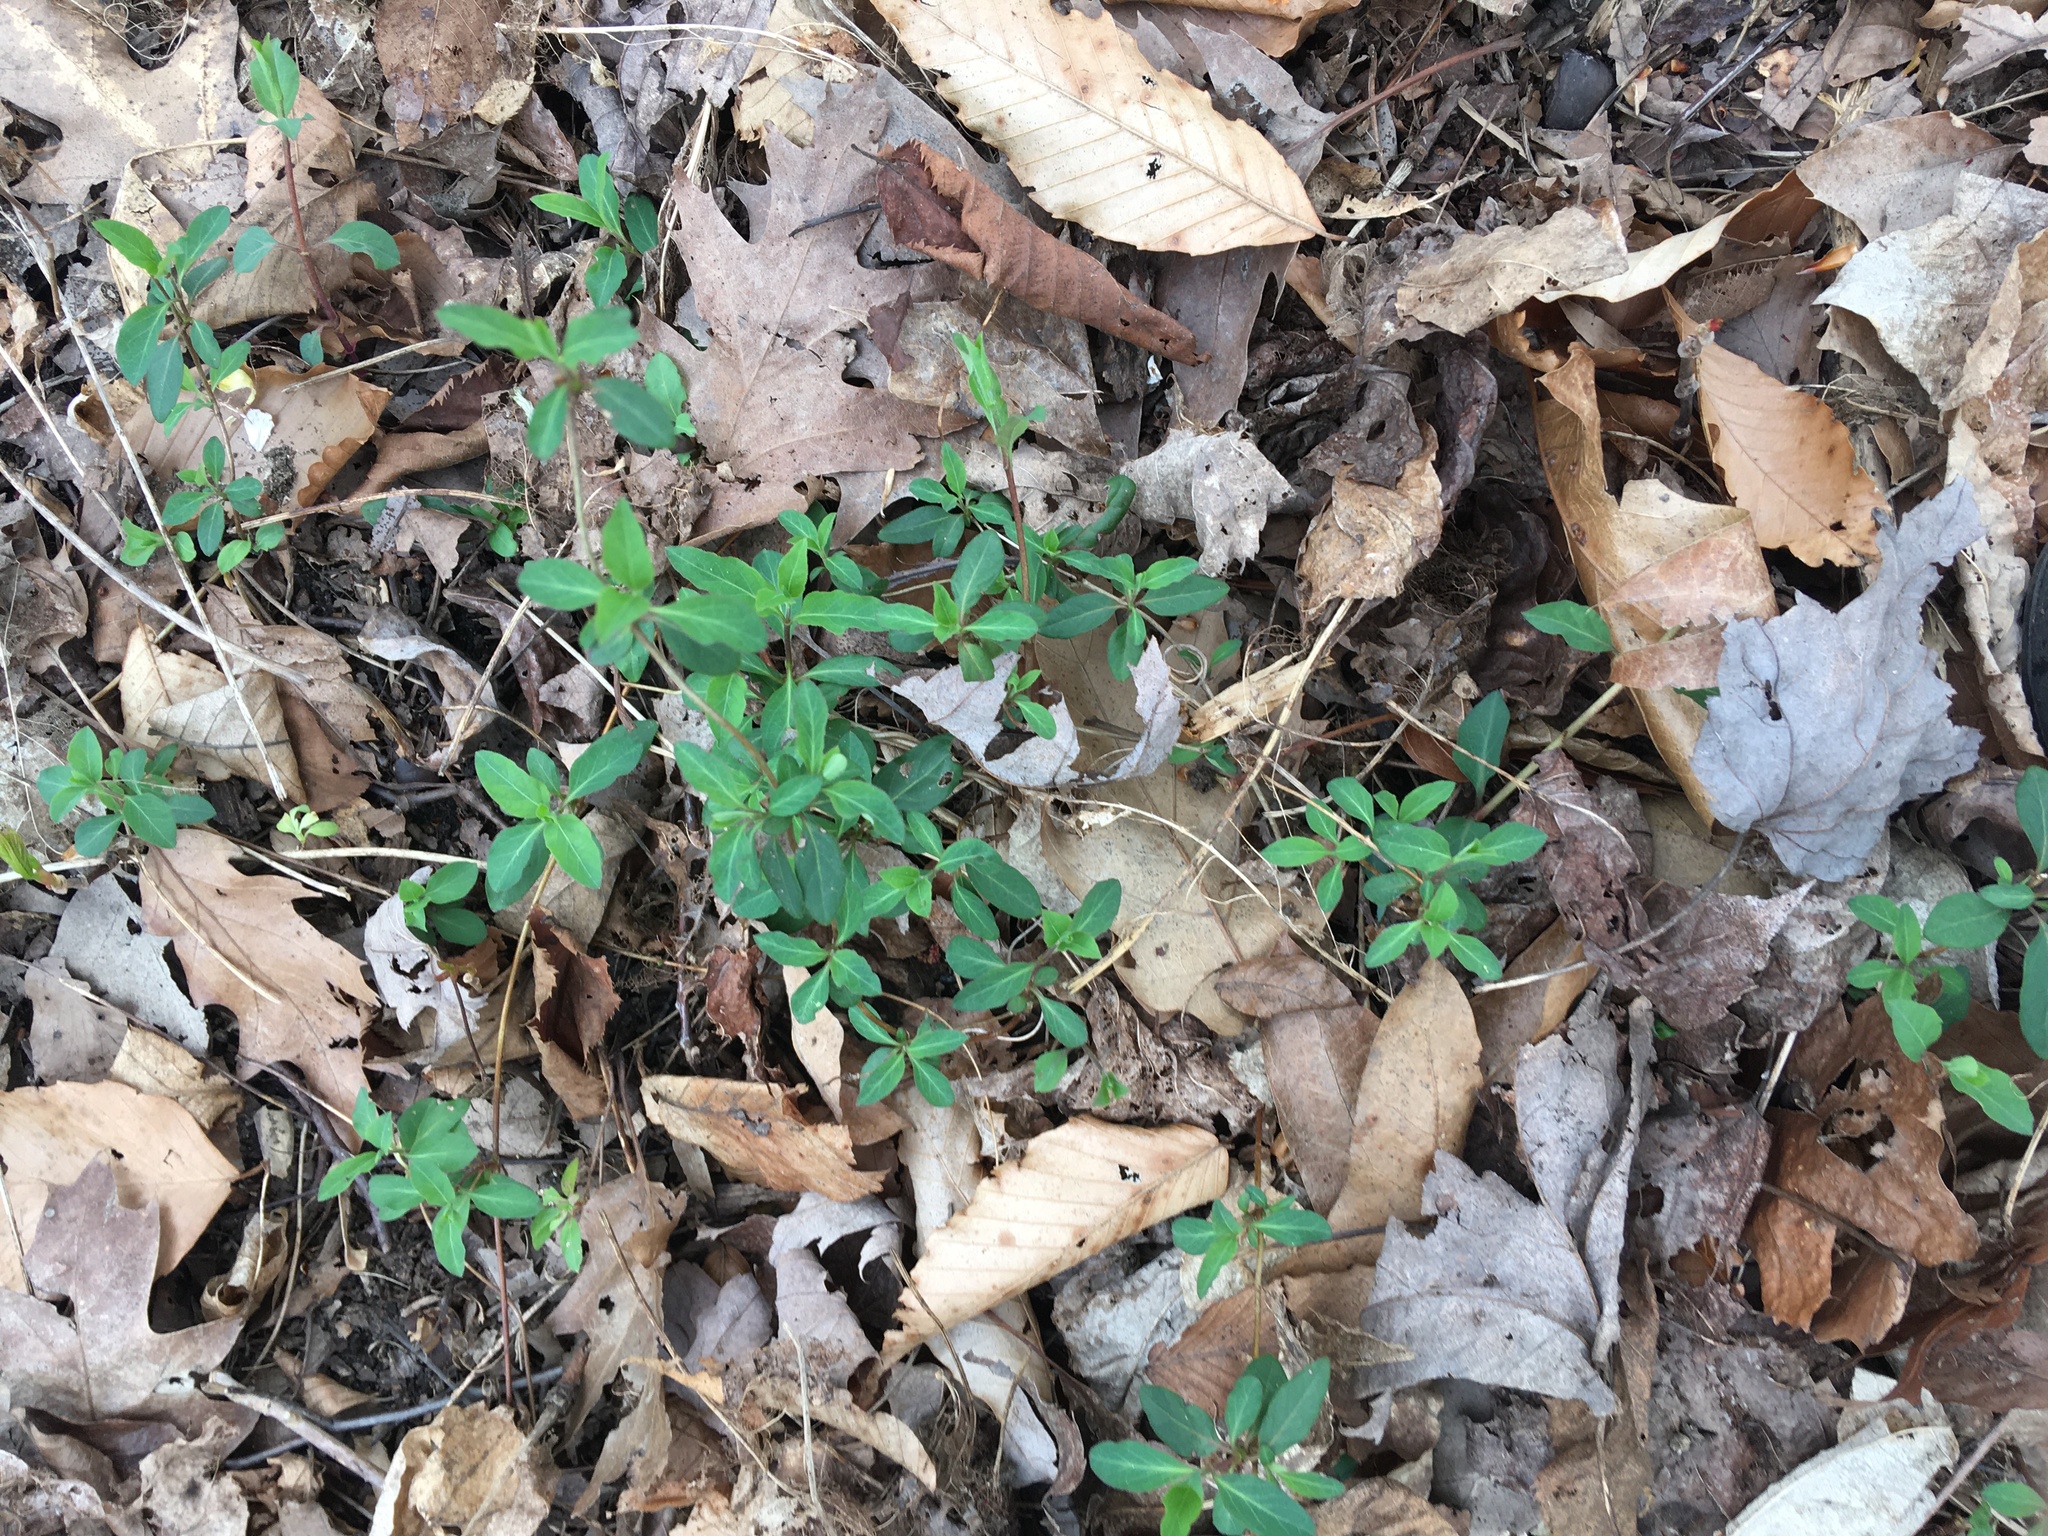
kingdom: Plantae
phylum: Tracheophyta
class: Magnoliopsida
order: Dipsacales
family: Caprifoliaceae
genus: Lonicera
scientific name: Lonicera japonica
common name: Japanese honeysuckle
